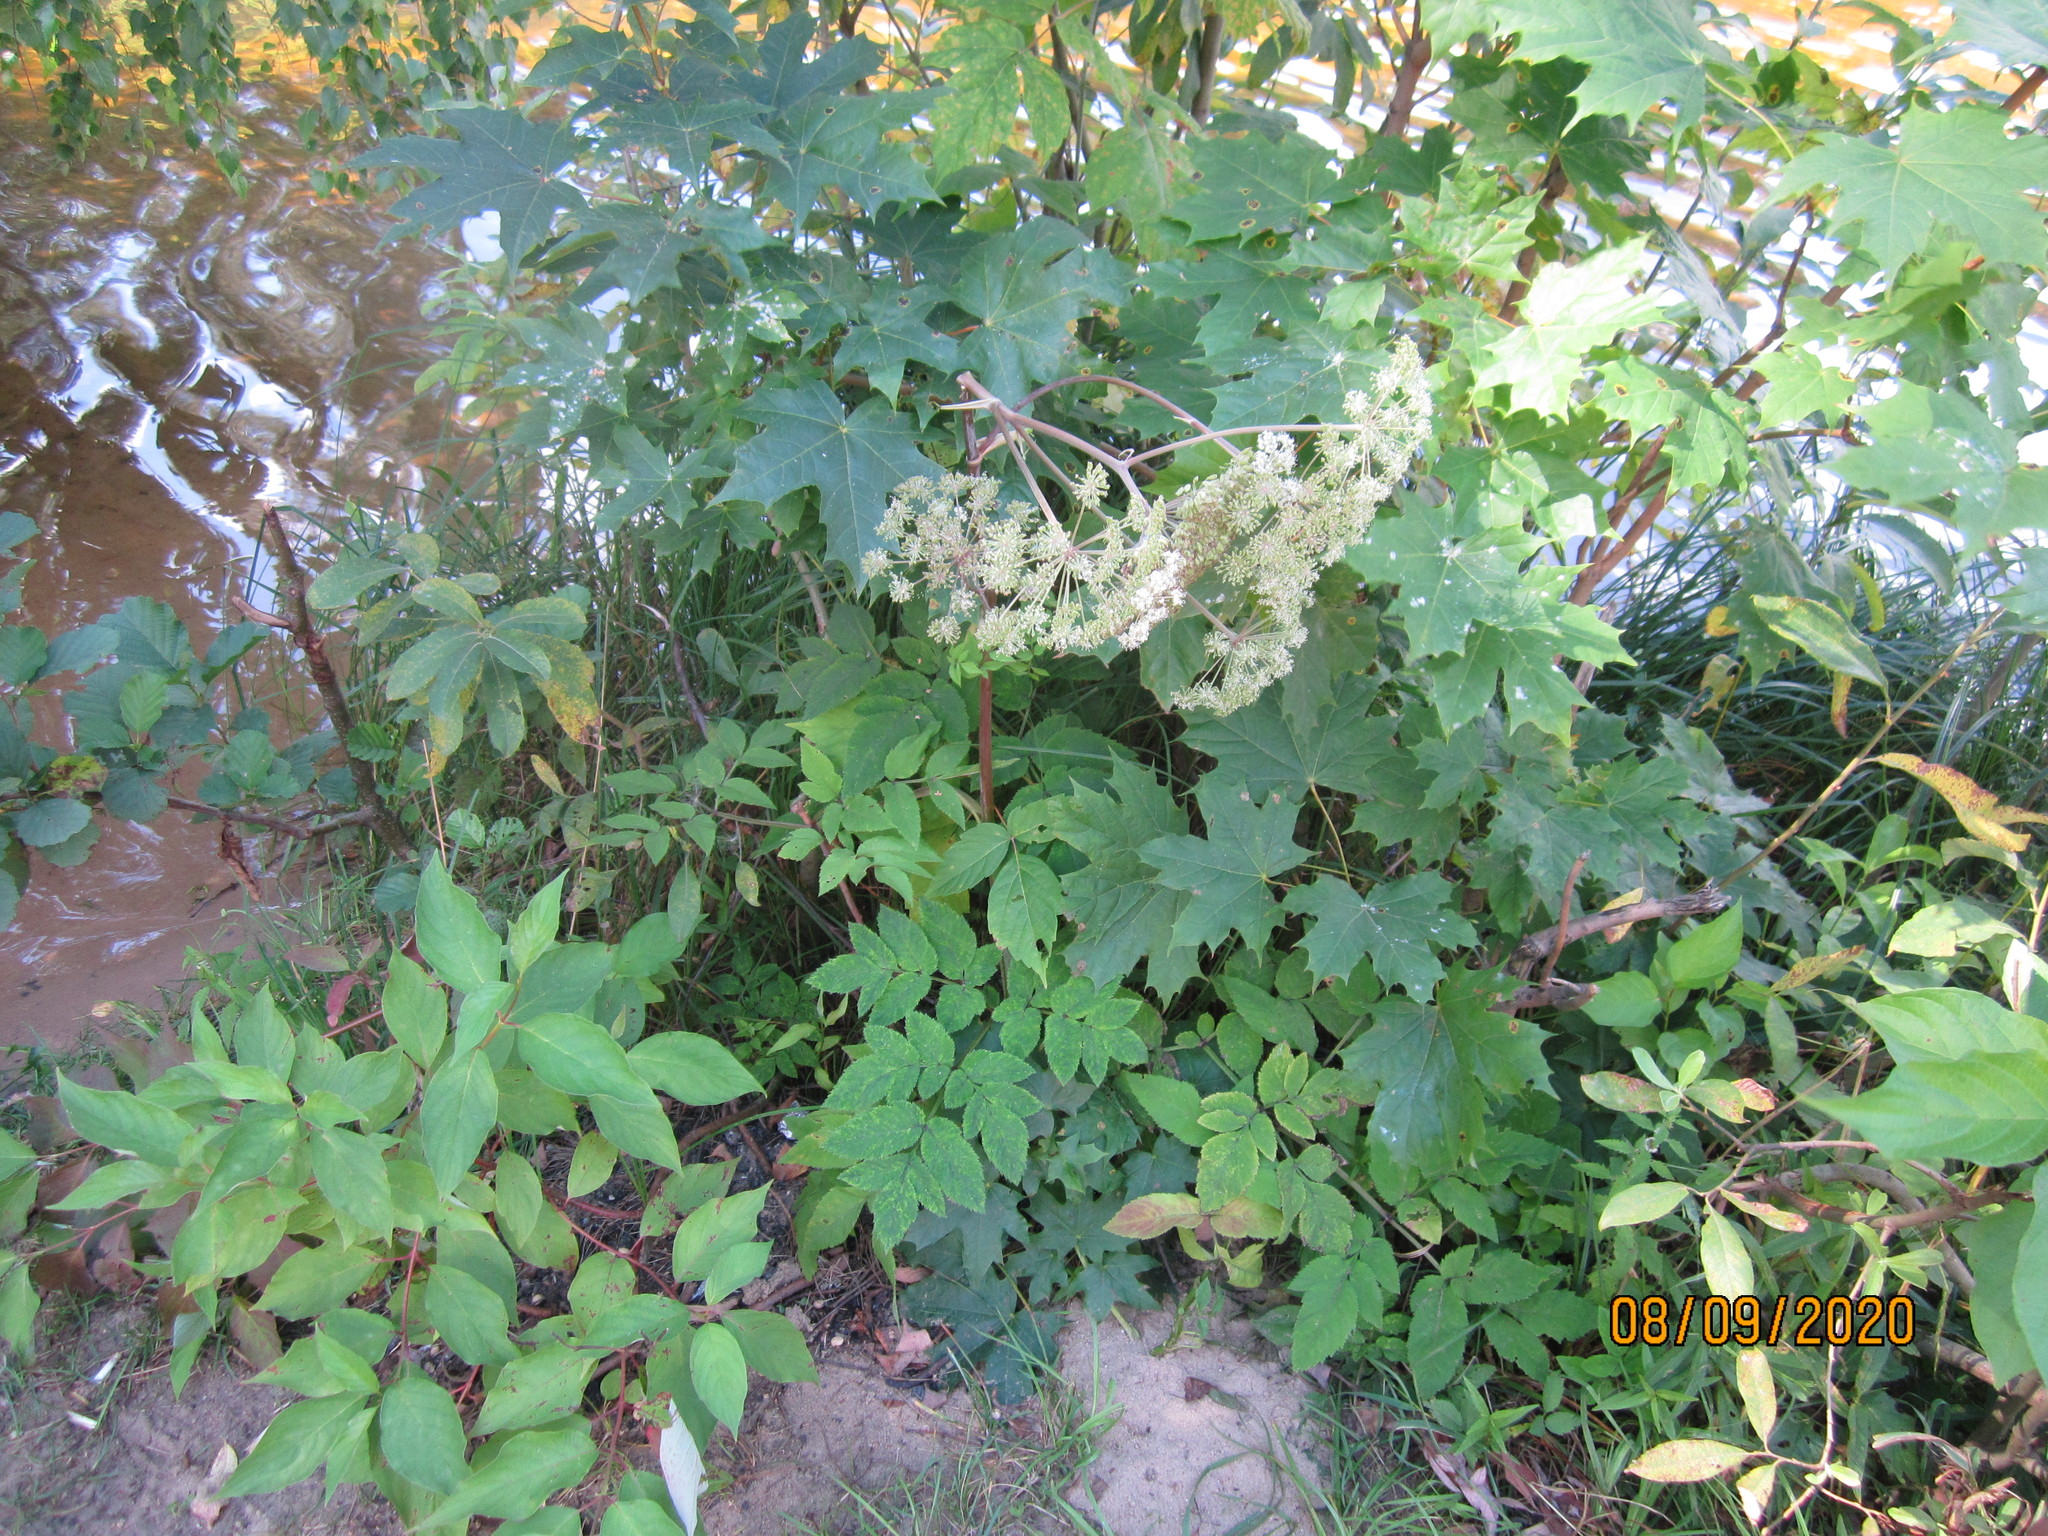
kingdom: Plantae
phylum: Tracheophyta
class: Magnoliopsida
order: Apiales
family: Apiaceae
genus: Angelica
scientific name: Angelica sylvestris
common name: Wild angelica
